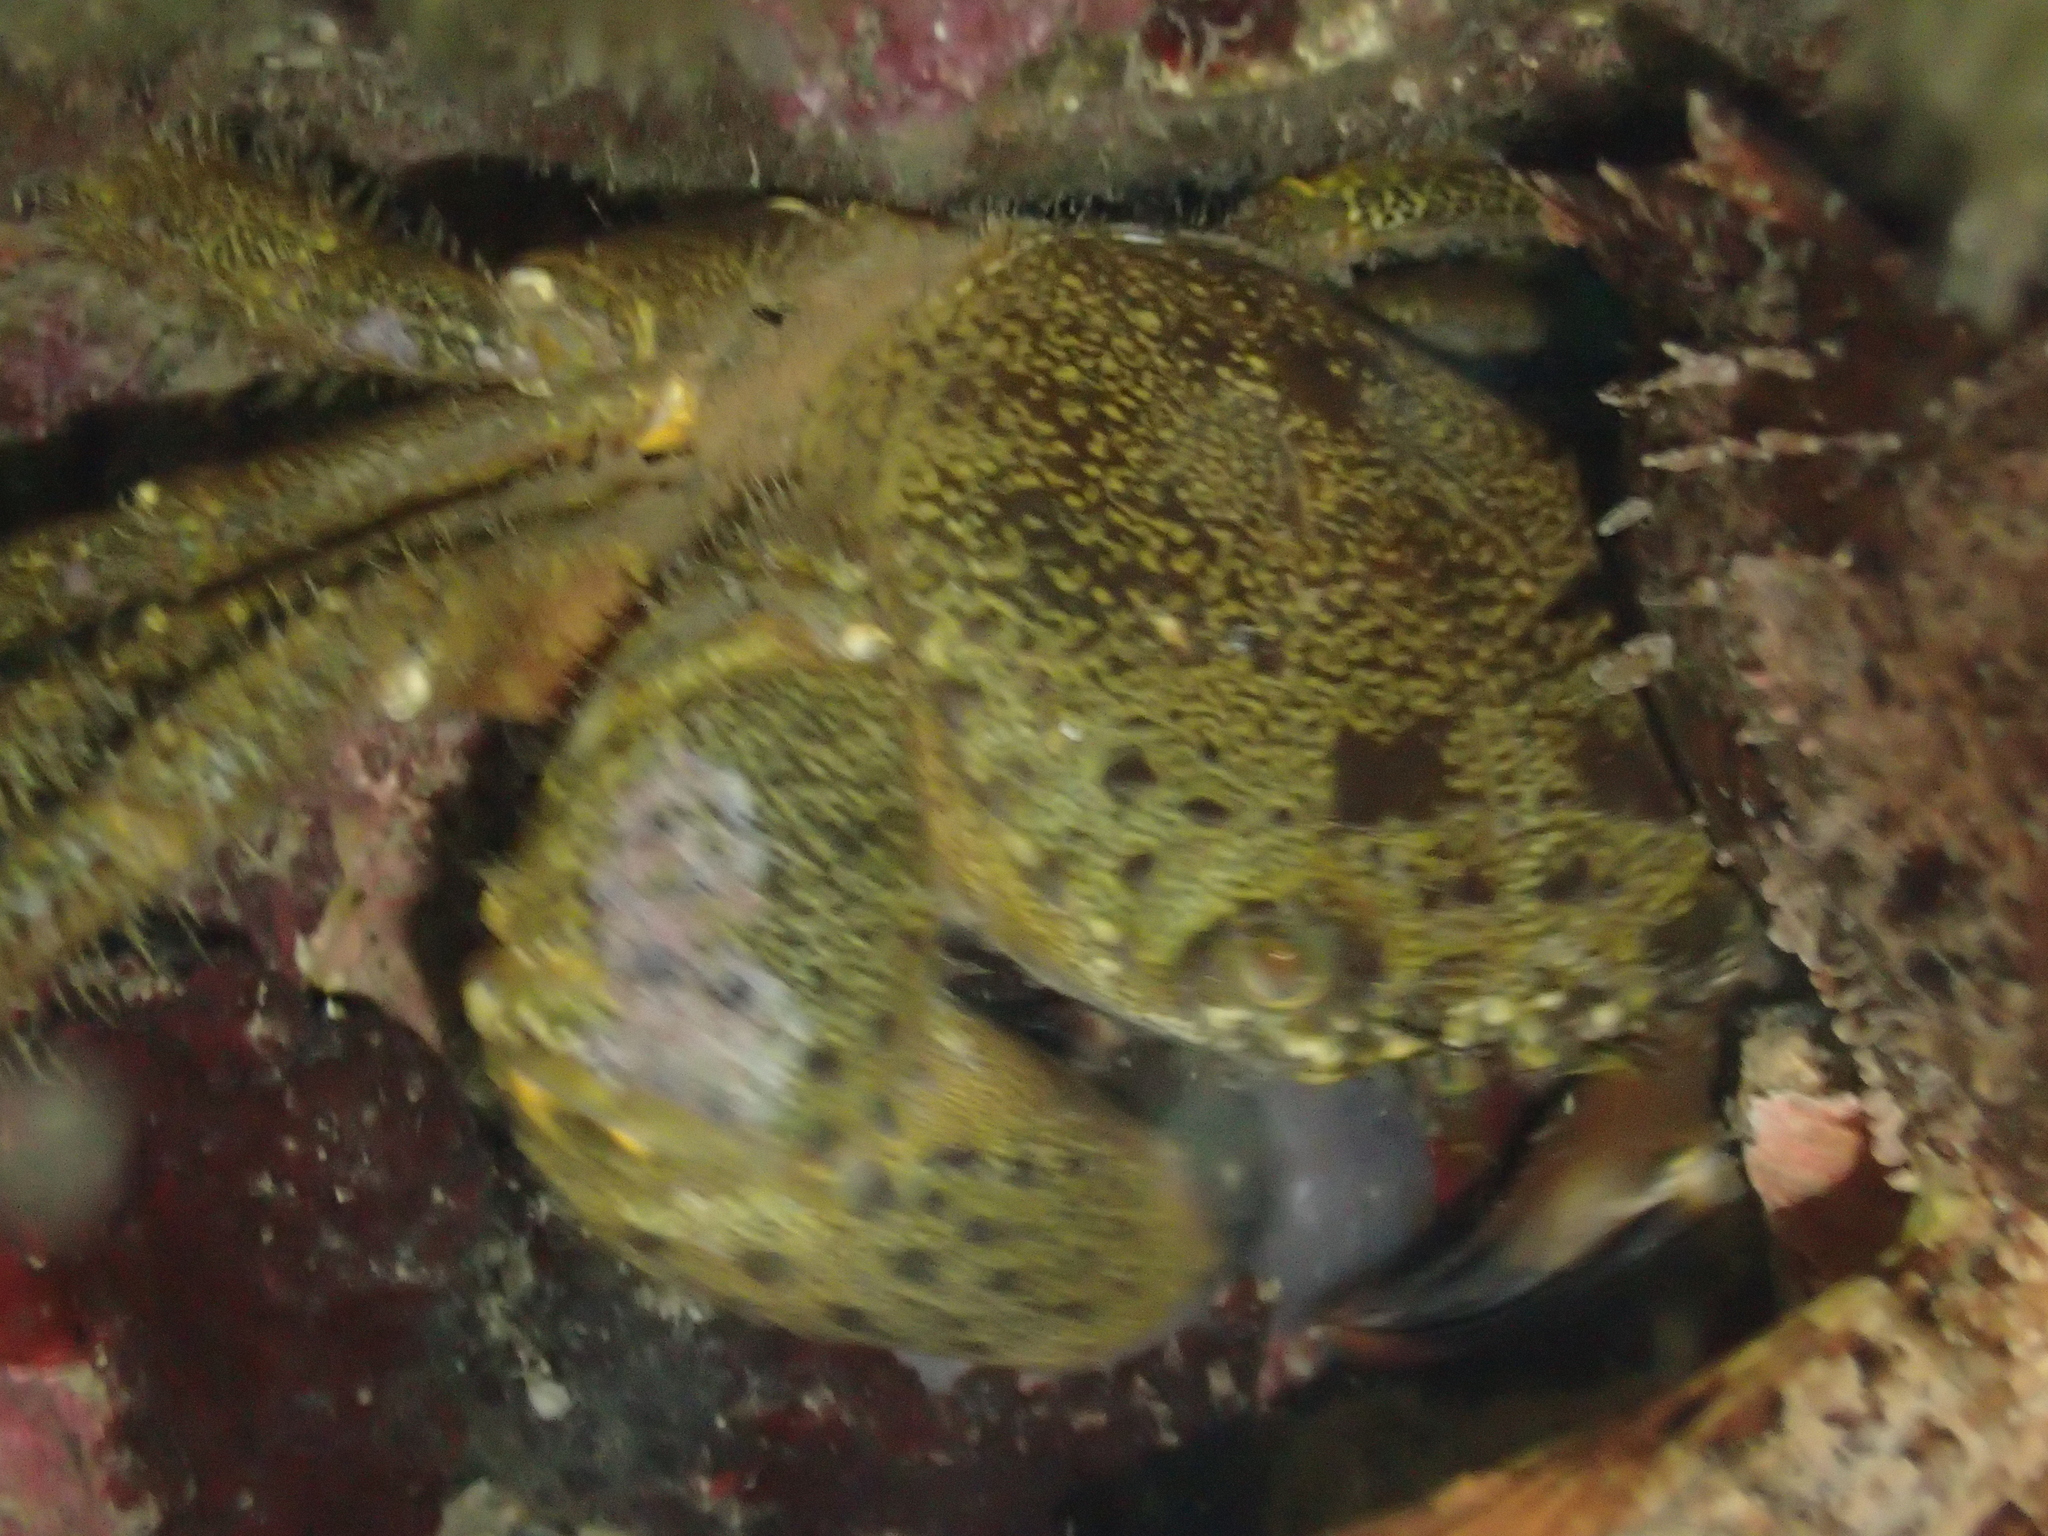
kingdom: Animalia
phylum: Arthropoda
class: Malacostraca
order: Decapoda
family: Eriphiidae
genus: Eriphia
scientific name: Eriphia verrucosa
